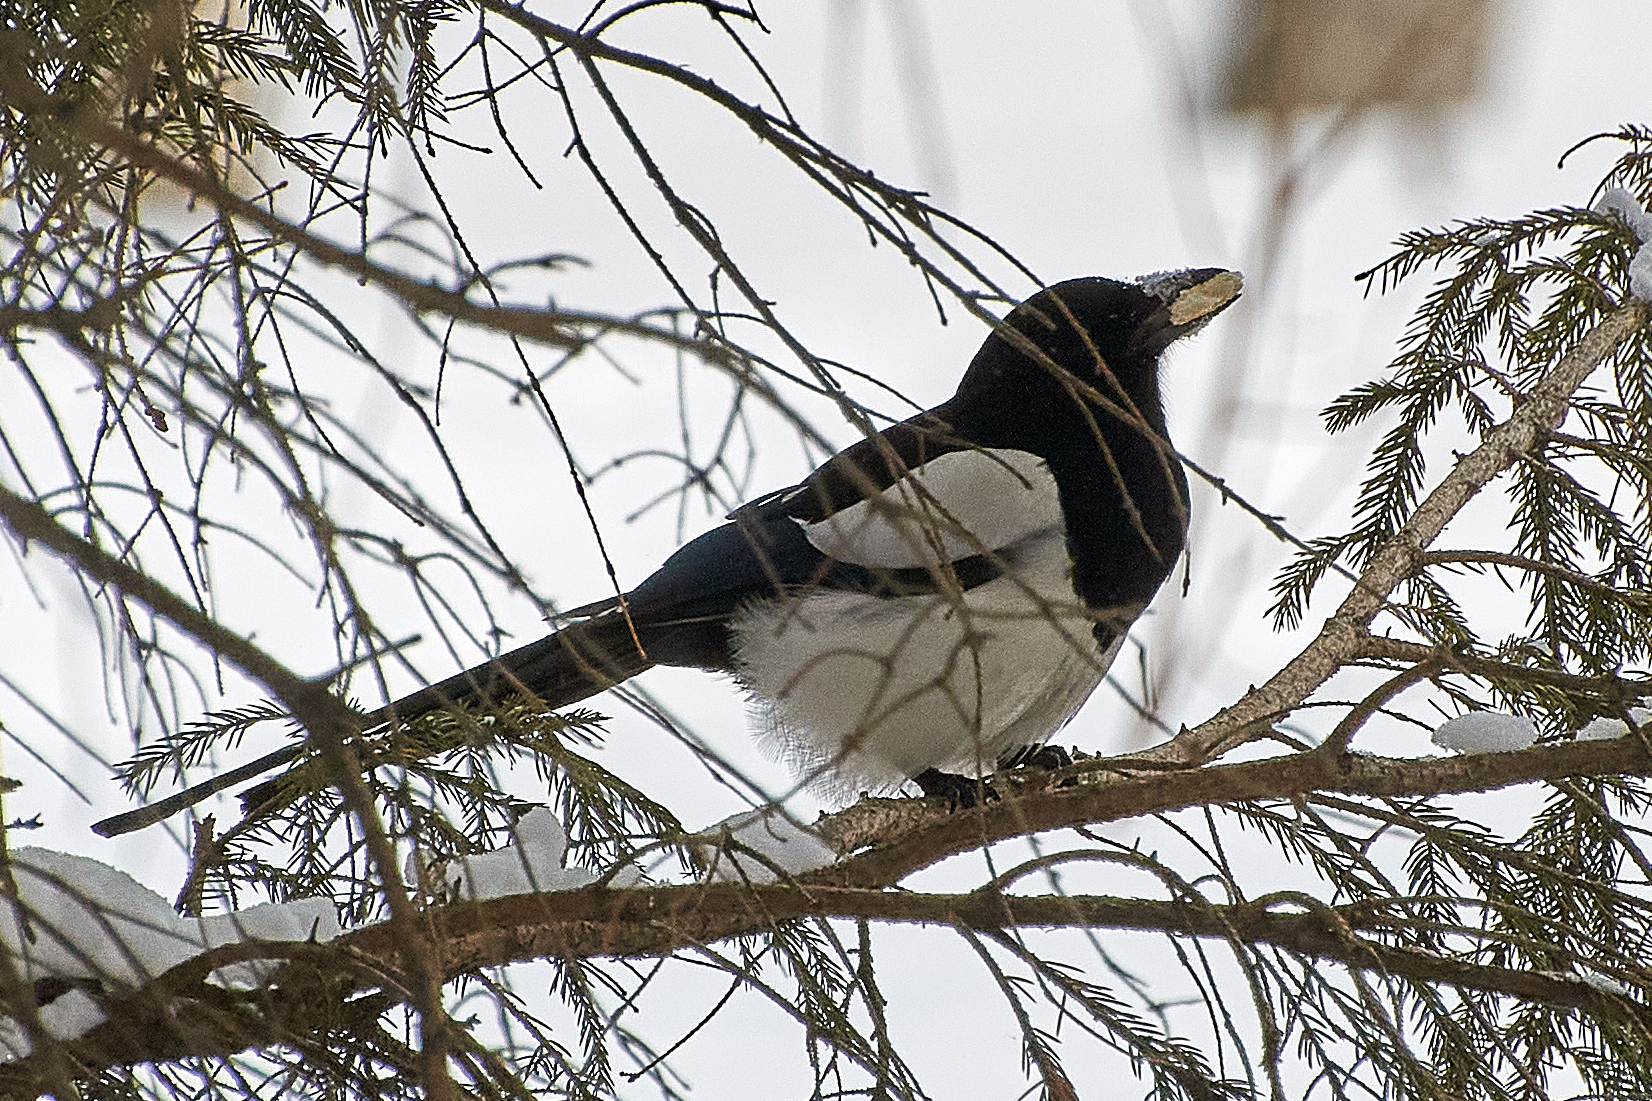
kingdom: Animalia
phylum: Chordata
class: Aves
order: Passeriformes
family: Corvidae
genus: Pica
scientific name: Pica pica
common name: Eurasian magpie
